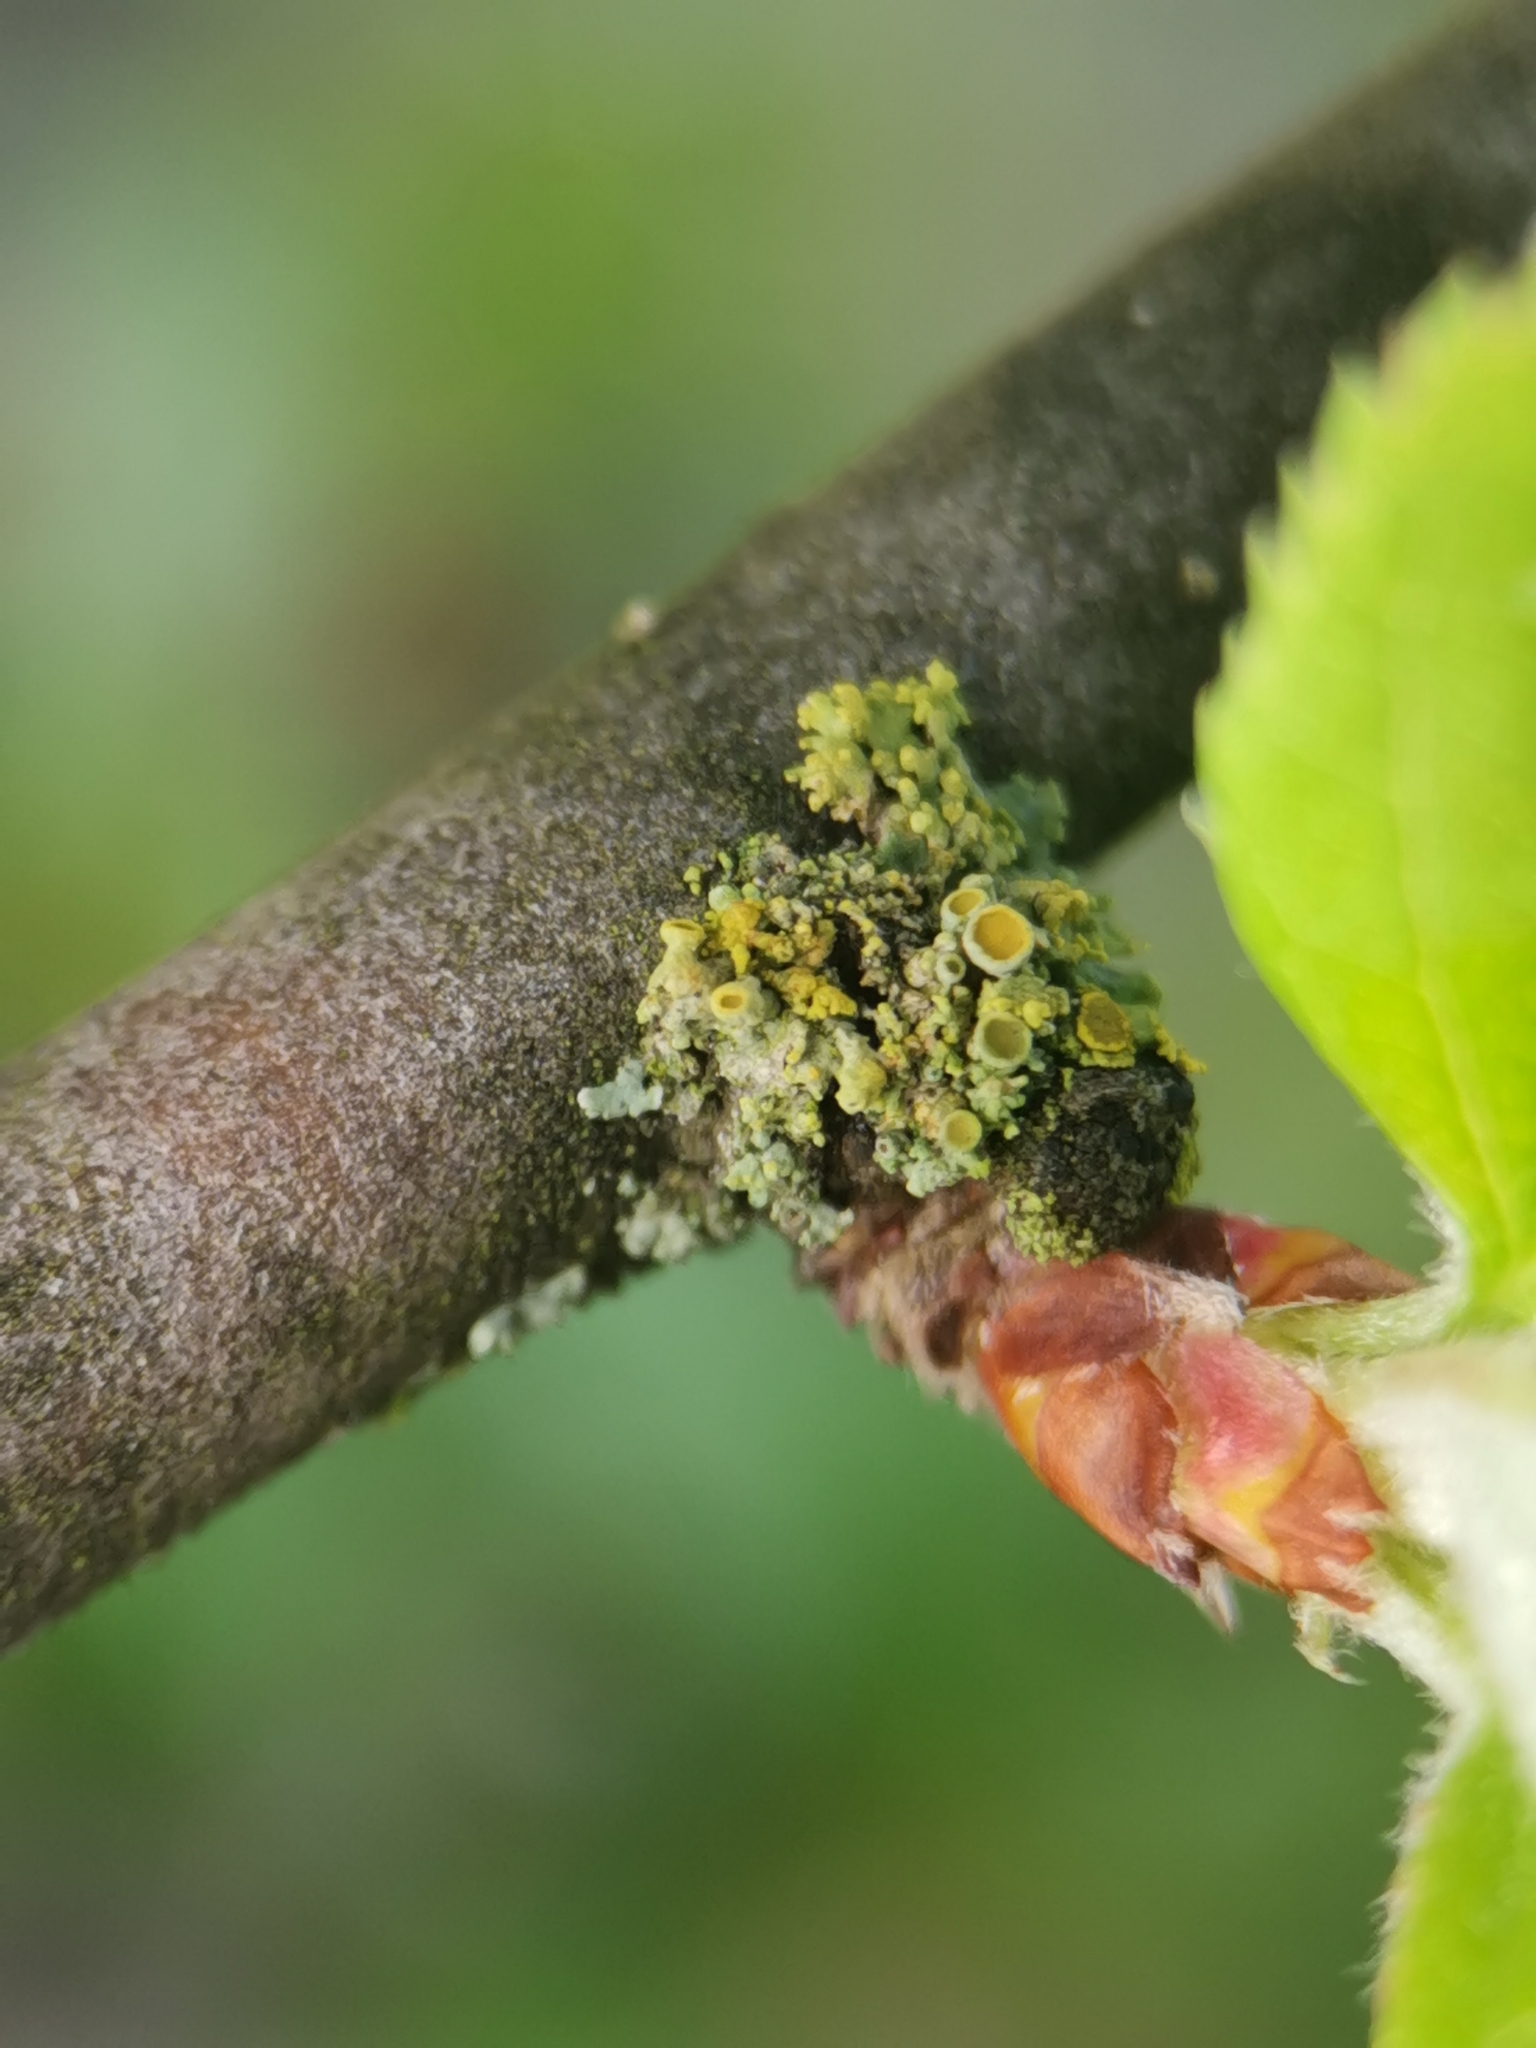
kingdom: Fungi
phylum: Ascomycota
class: Lecanoromycetes
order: Teloschistales
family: Teloschistaceae
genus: Polycauliona
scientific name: Polycauliona polycarpa
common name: Pin-cushion sunburst lichen
